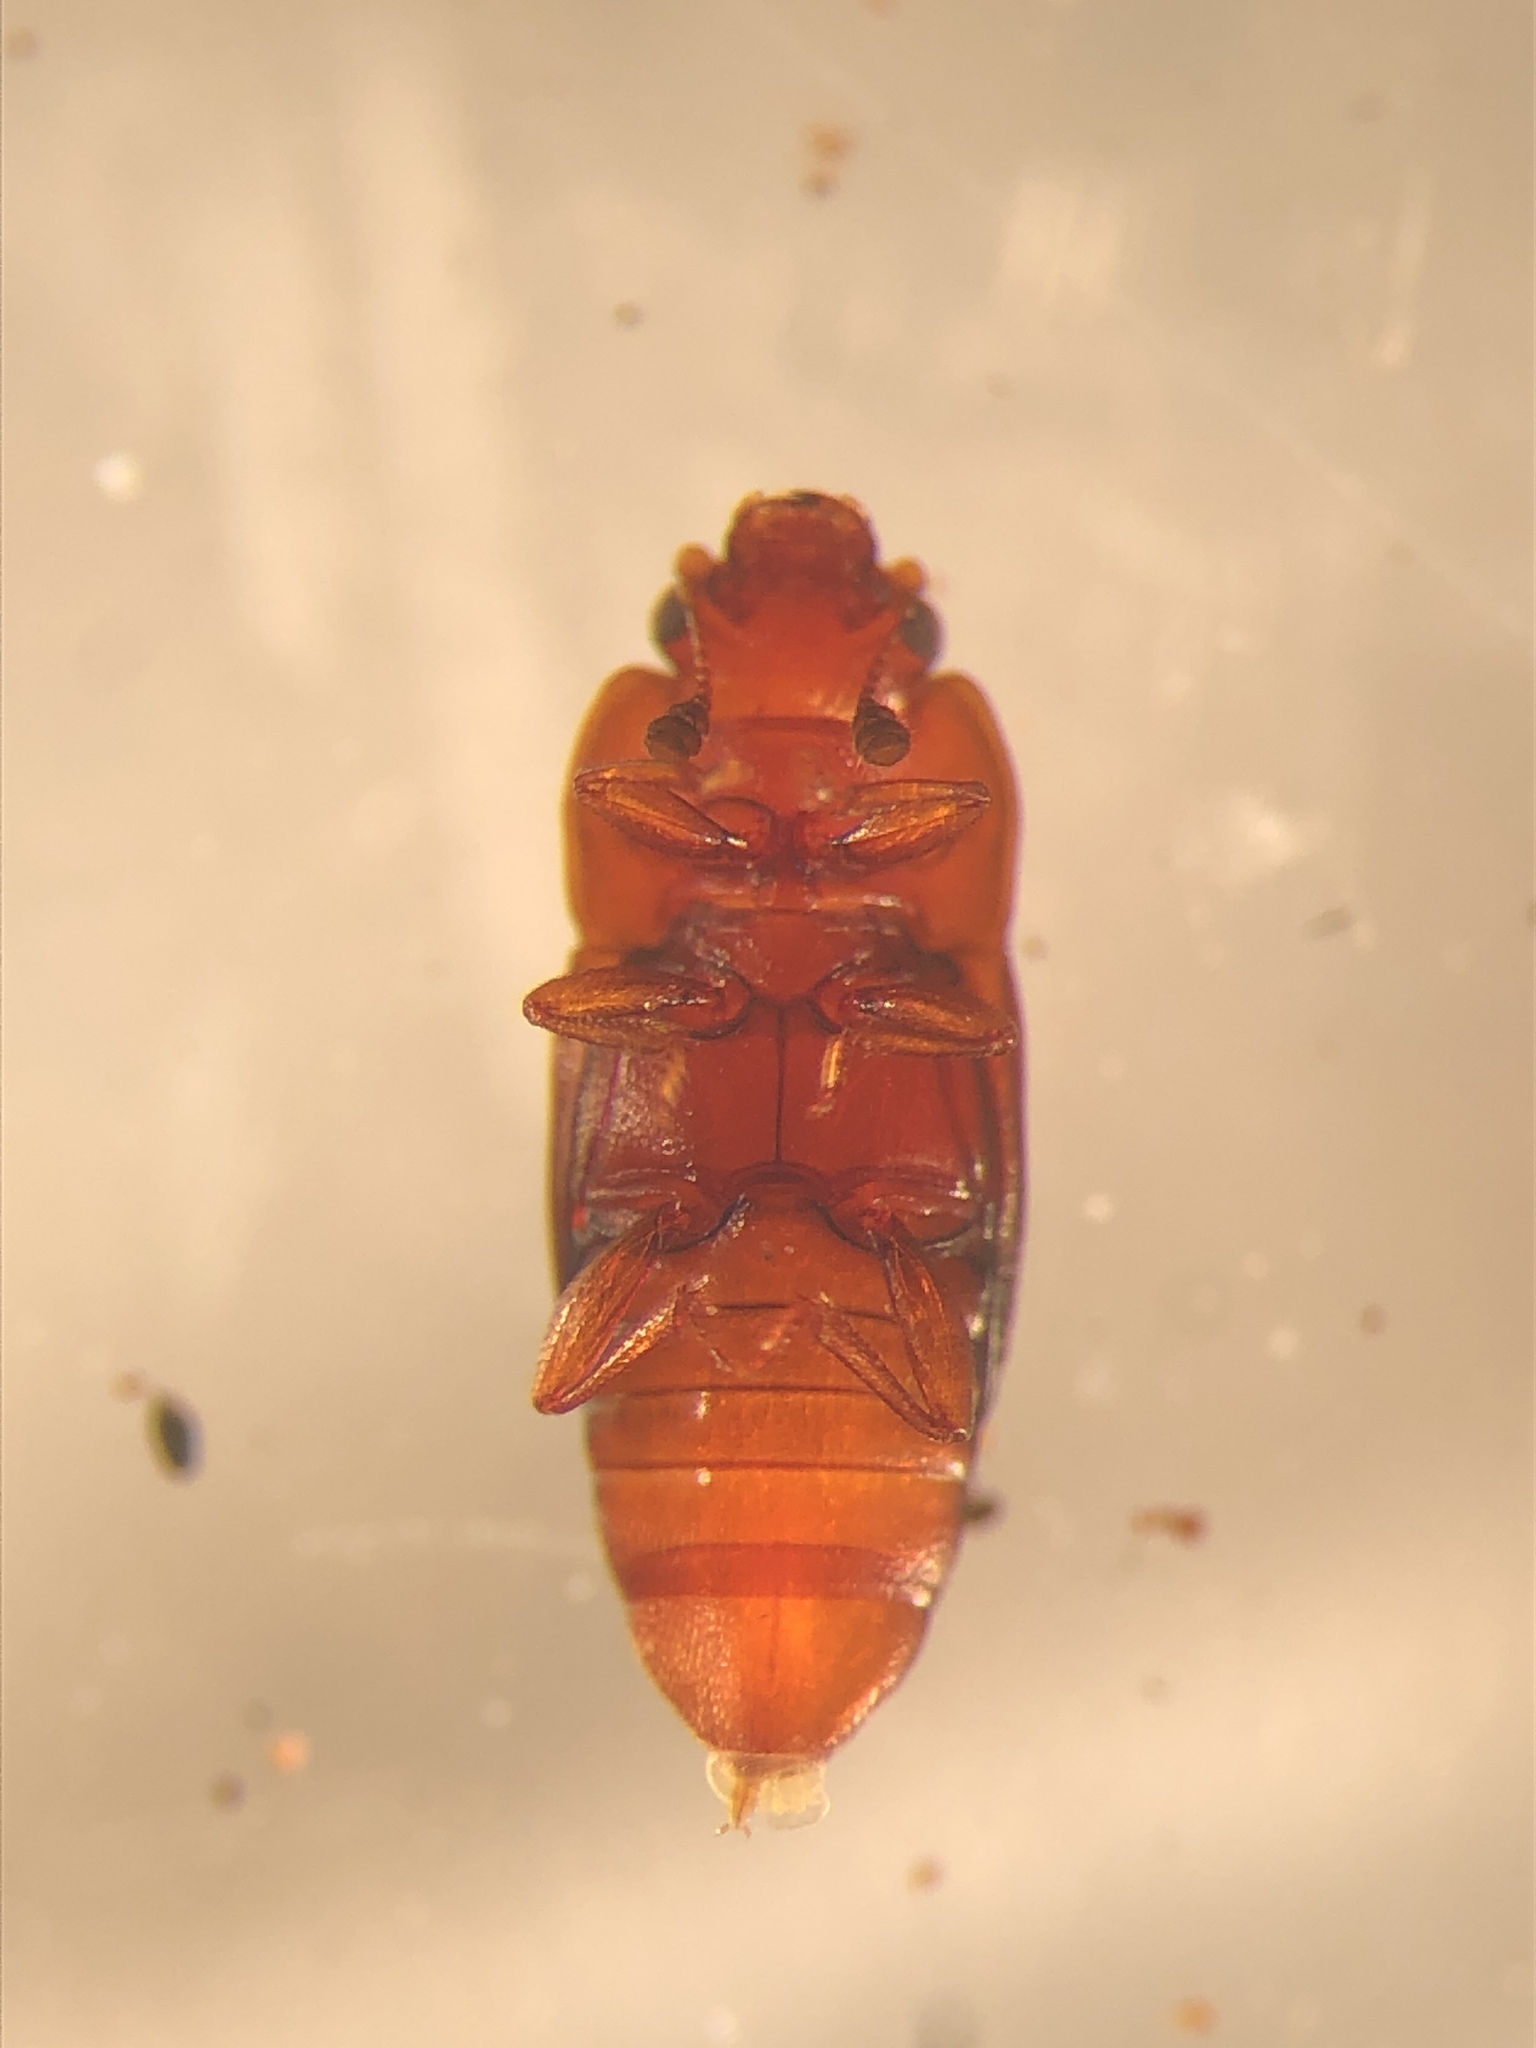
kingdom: Animalia
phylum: Arthropoda
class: Insecta
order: Coleoptera
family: Nitidulidae
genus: Carpophilus
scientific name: Carpophilus antiquus
